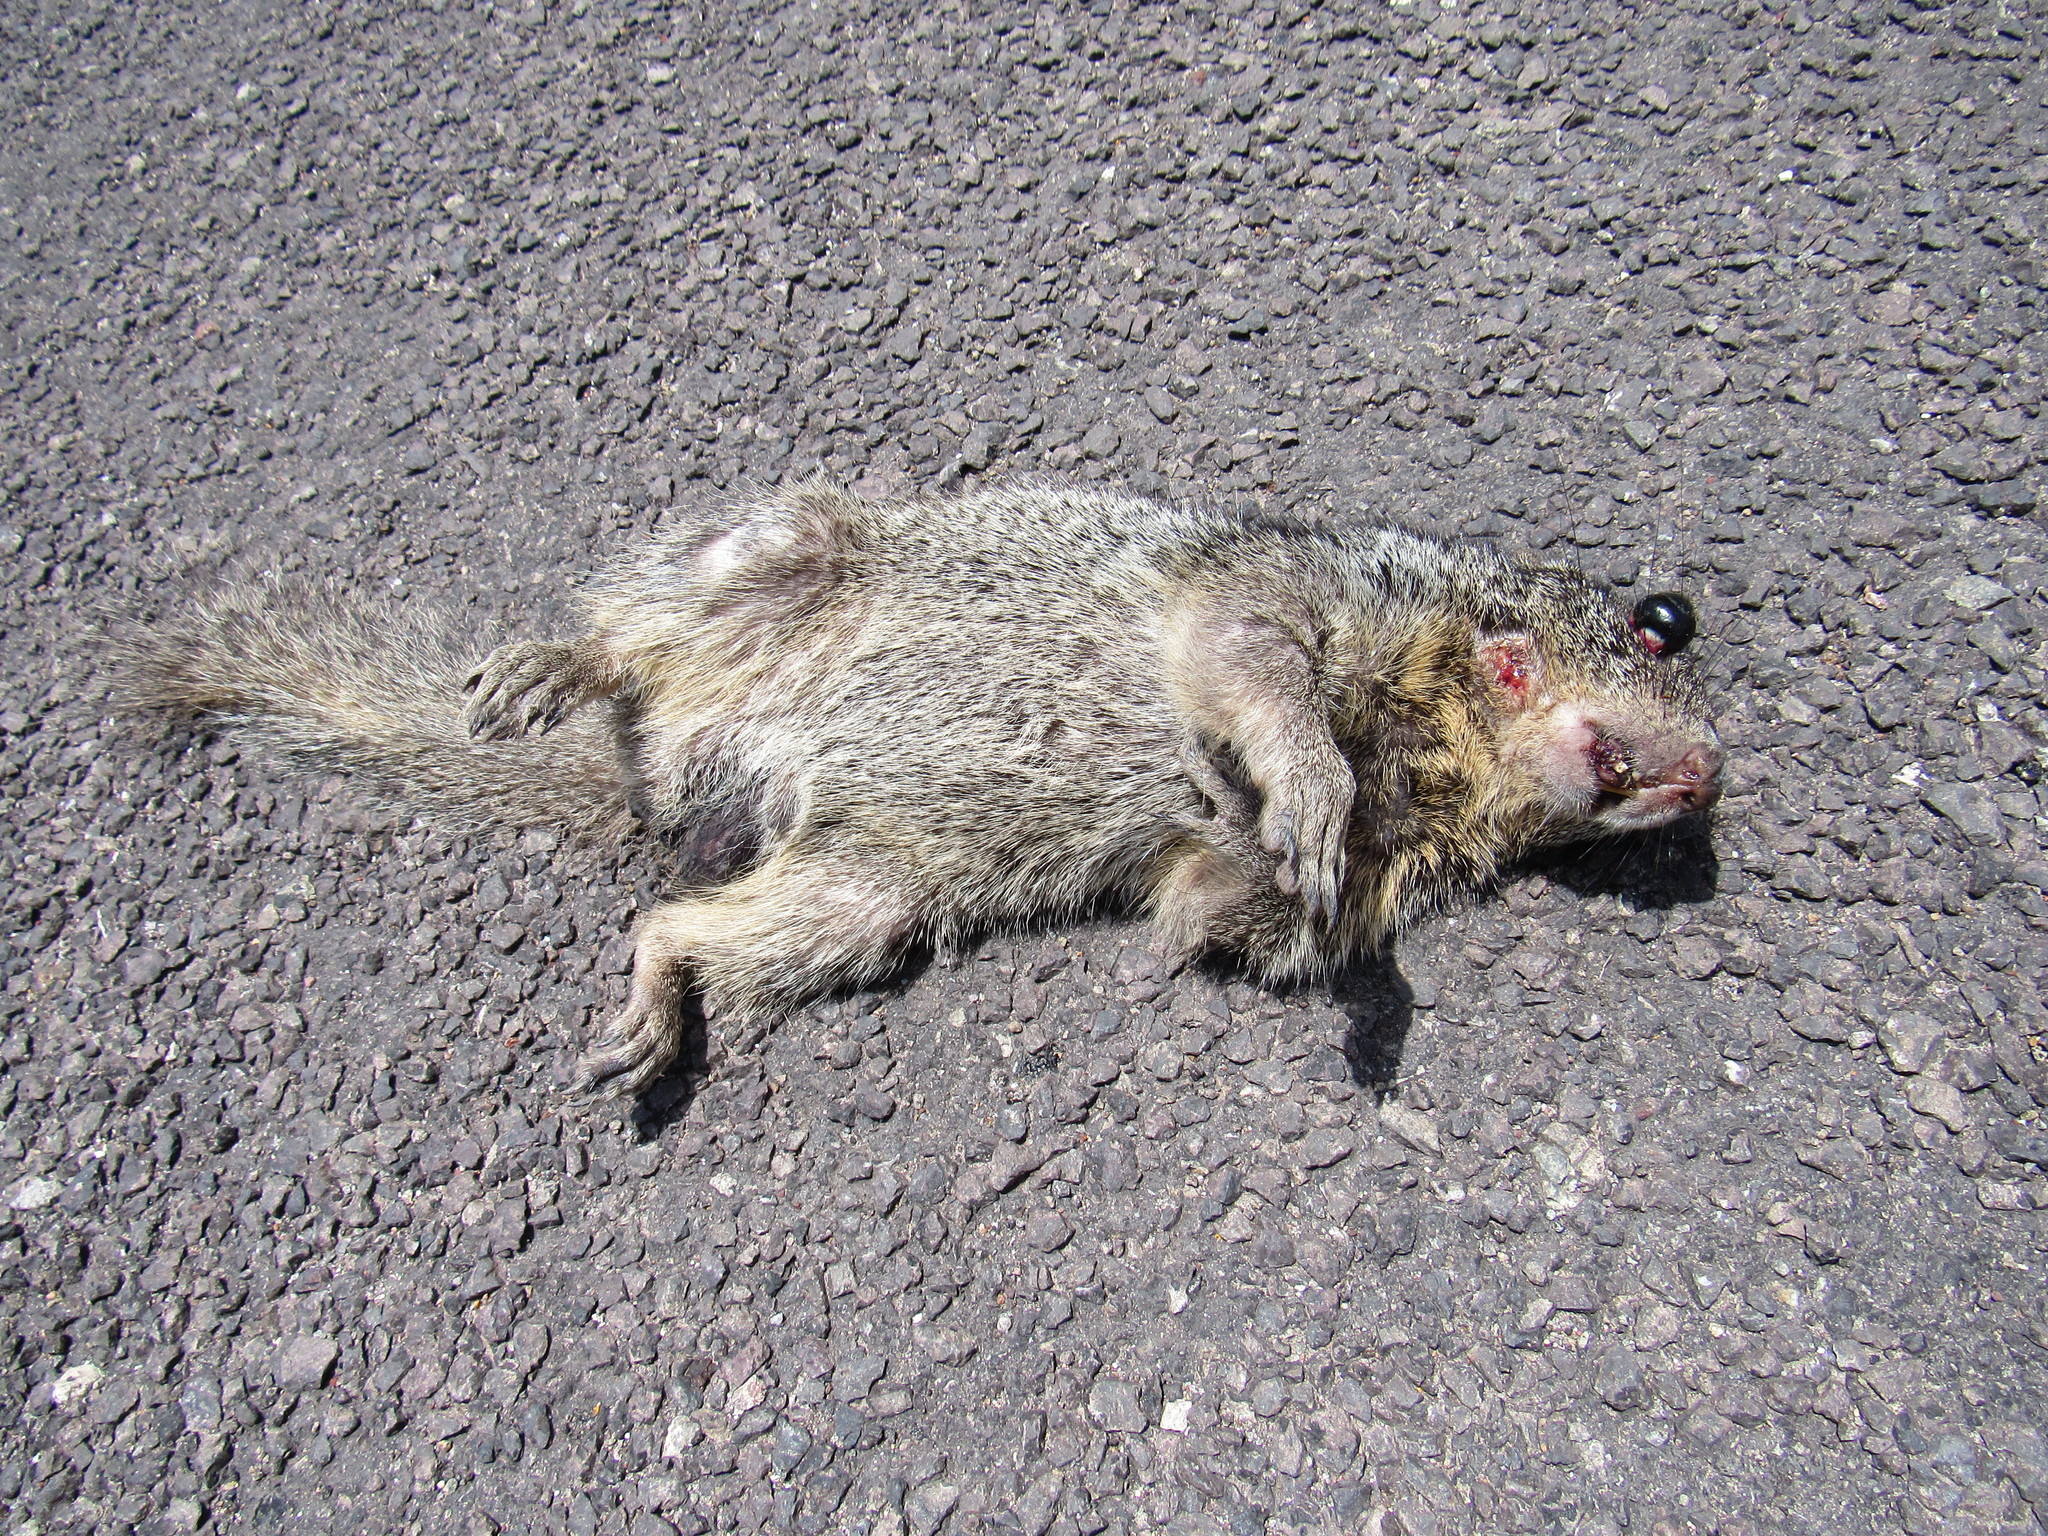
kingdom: Animalia
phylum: Chordata
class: Mammalia
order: Rodentia
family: Sciuridae
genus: Otospermophilus
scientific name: Otospermophilus variegatus
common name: Rock squirrel
